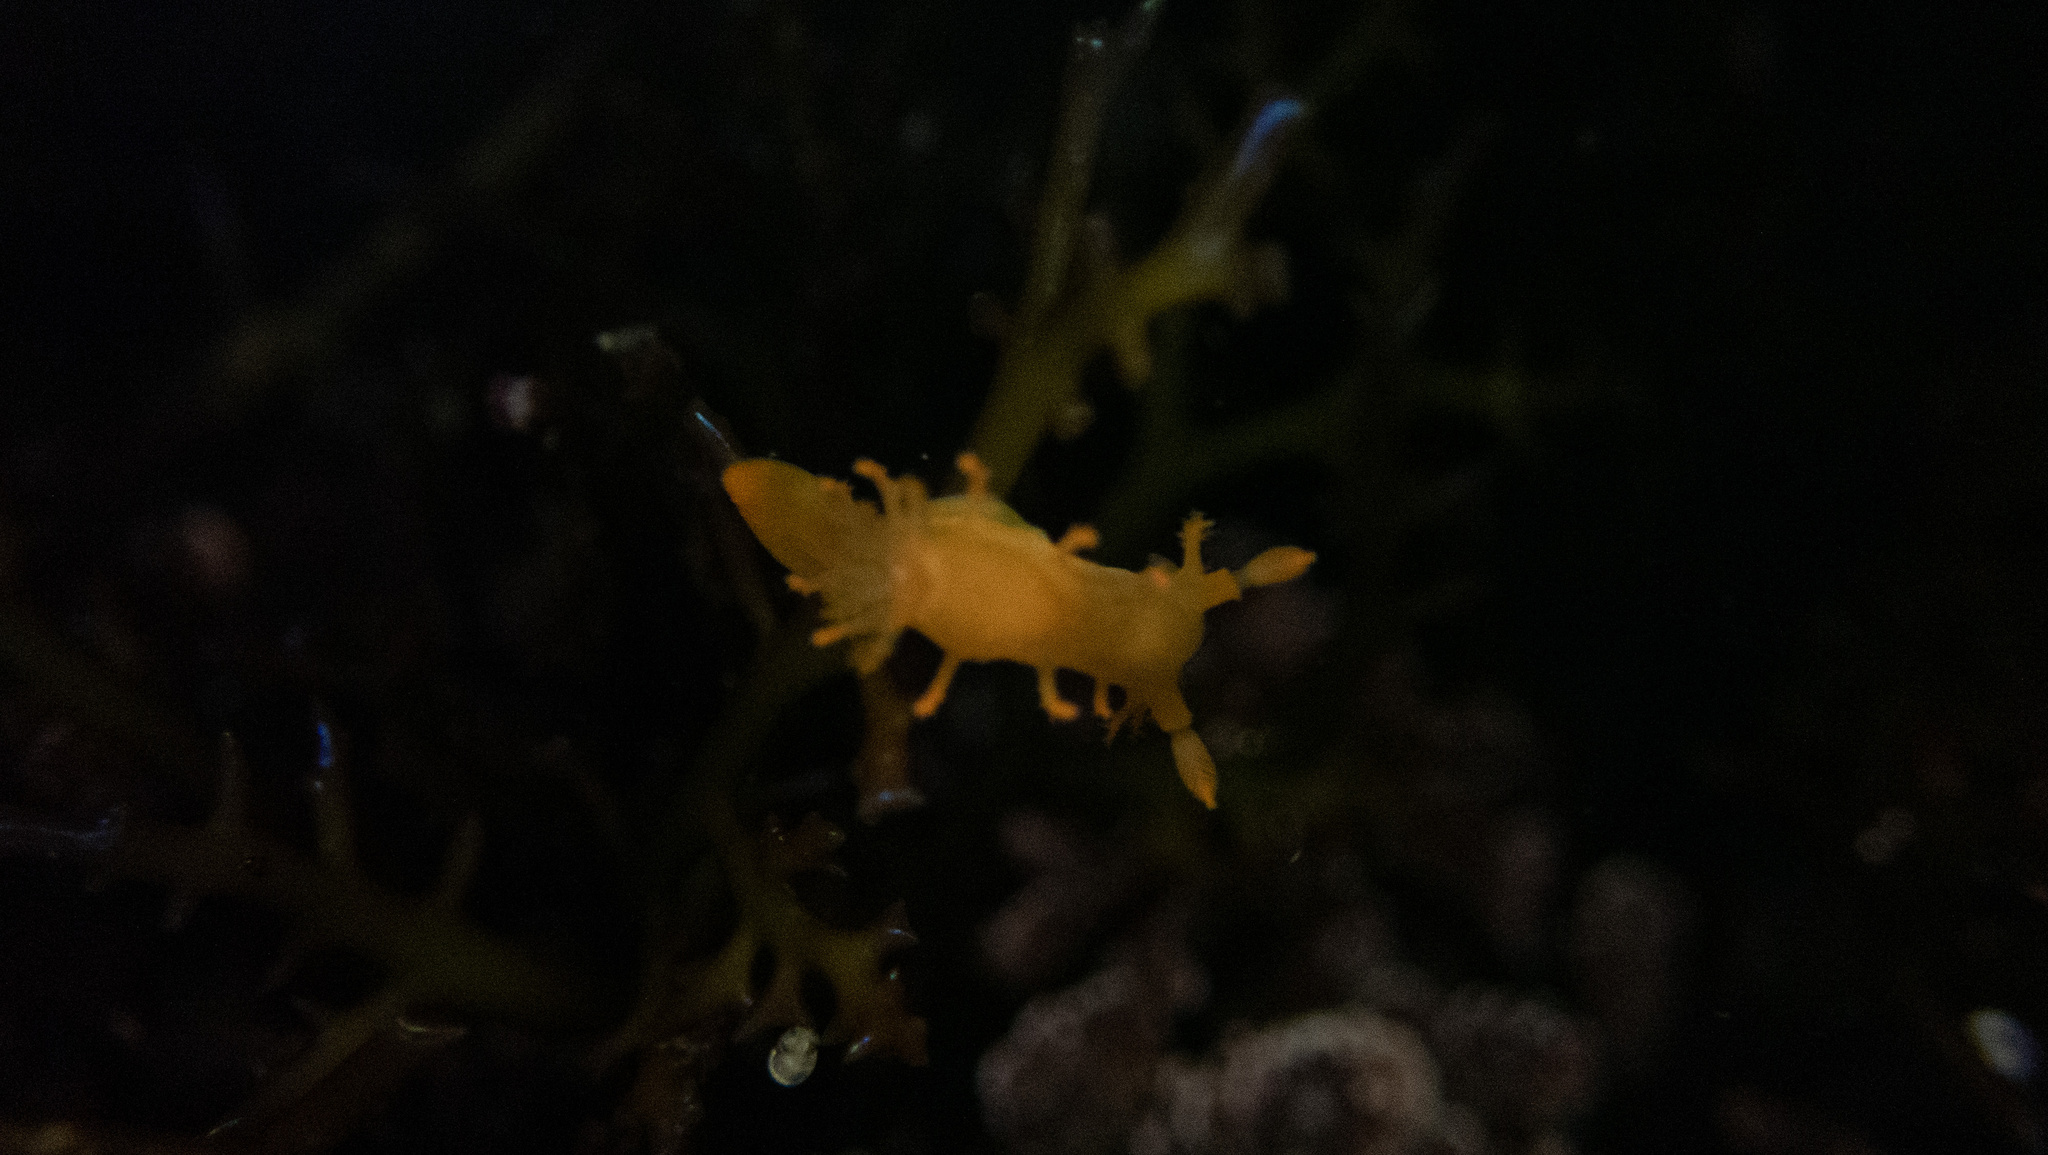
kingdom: Animalia
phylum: Mollusca
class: Gastropoda
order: Nudibranchia
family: Polyceridae
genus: Triopha
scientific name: Triopha maculata
